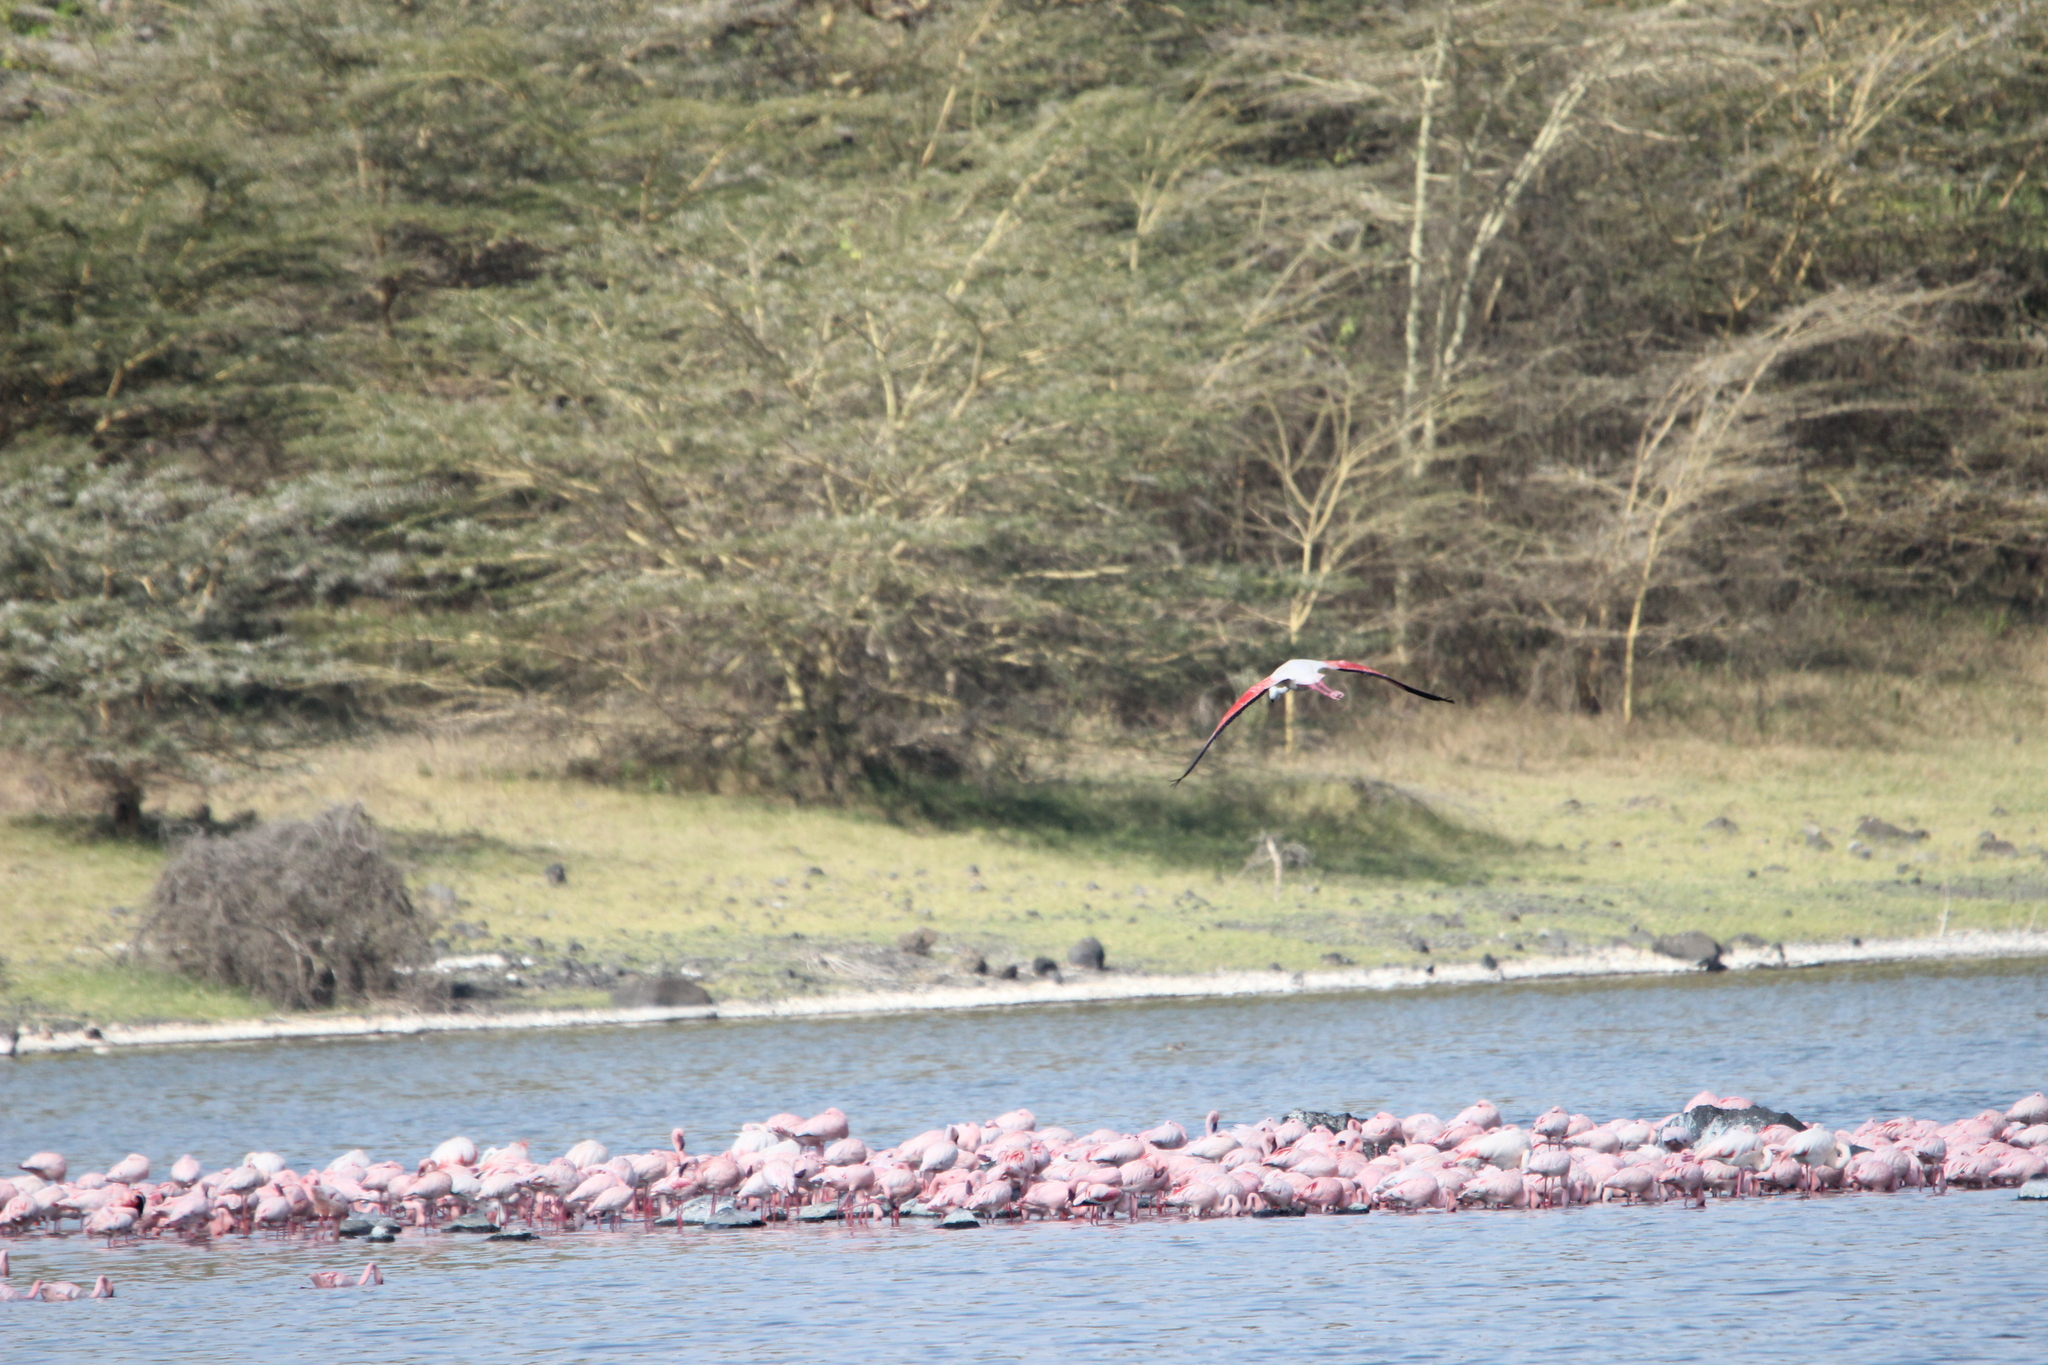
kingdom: Animalia
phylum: Chordata
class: Aves
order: Phoenicopteriformes
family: Phoenicopteridae
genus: Phoeniconaias
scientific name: Phoeniconaias minor
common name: Lesser flamingo
